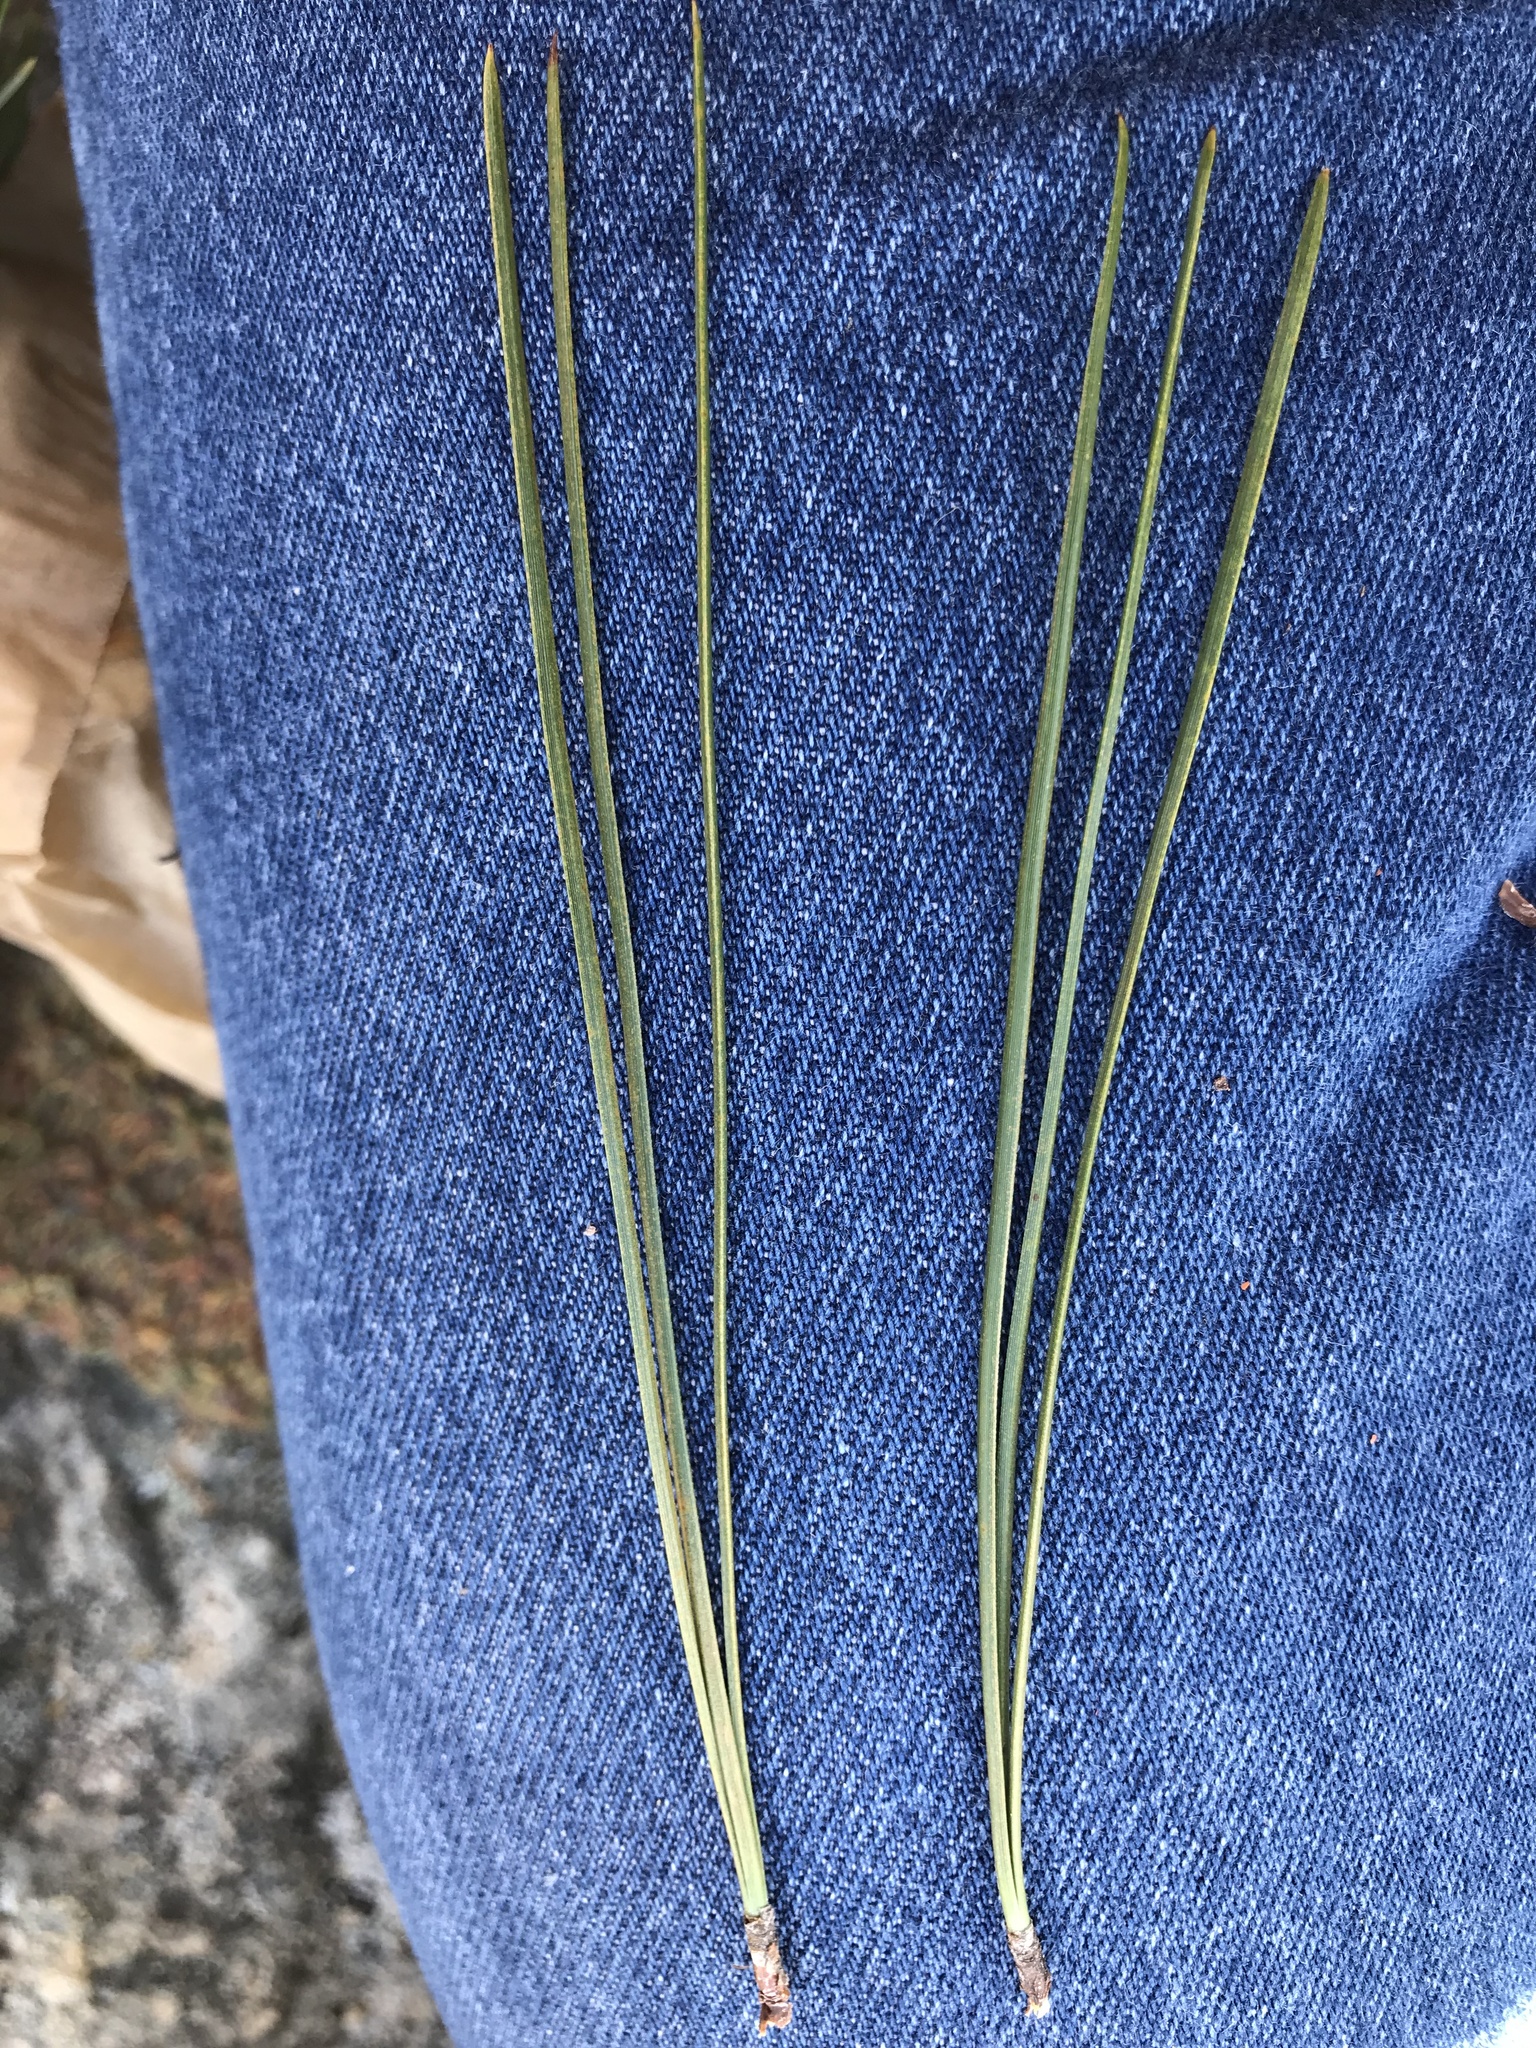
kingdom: Plantae
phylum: Tracheophyta
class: Pinopsida
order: Pinales
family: Pinaceae
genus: Pinus
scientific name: Pinus attenuata
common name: Knobcone pine
